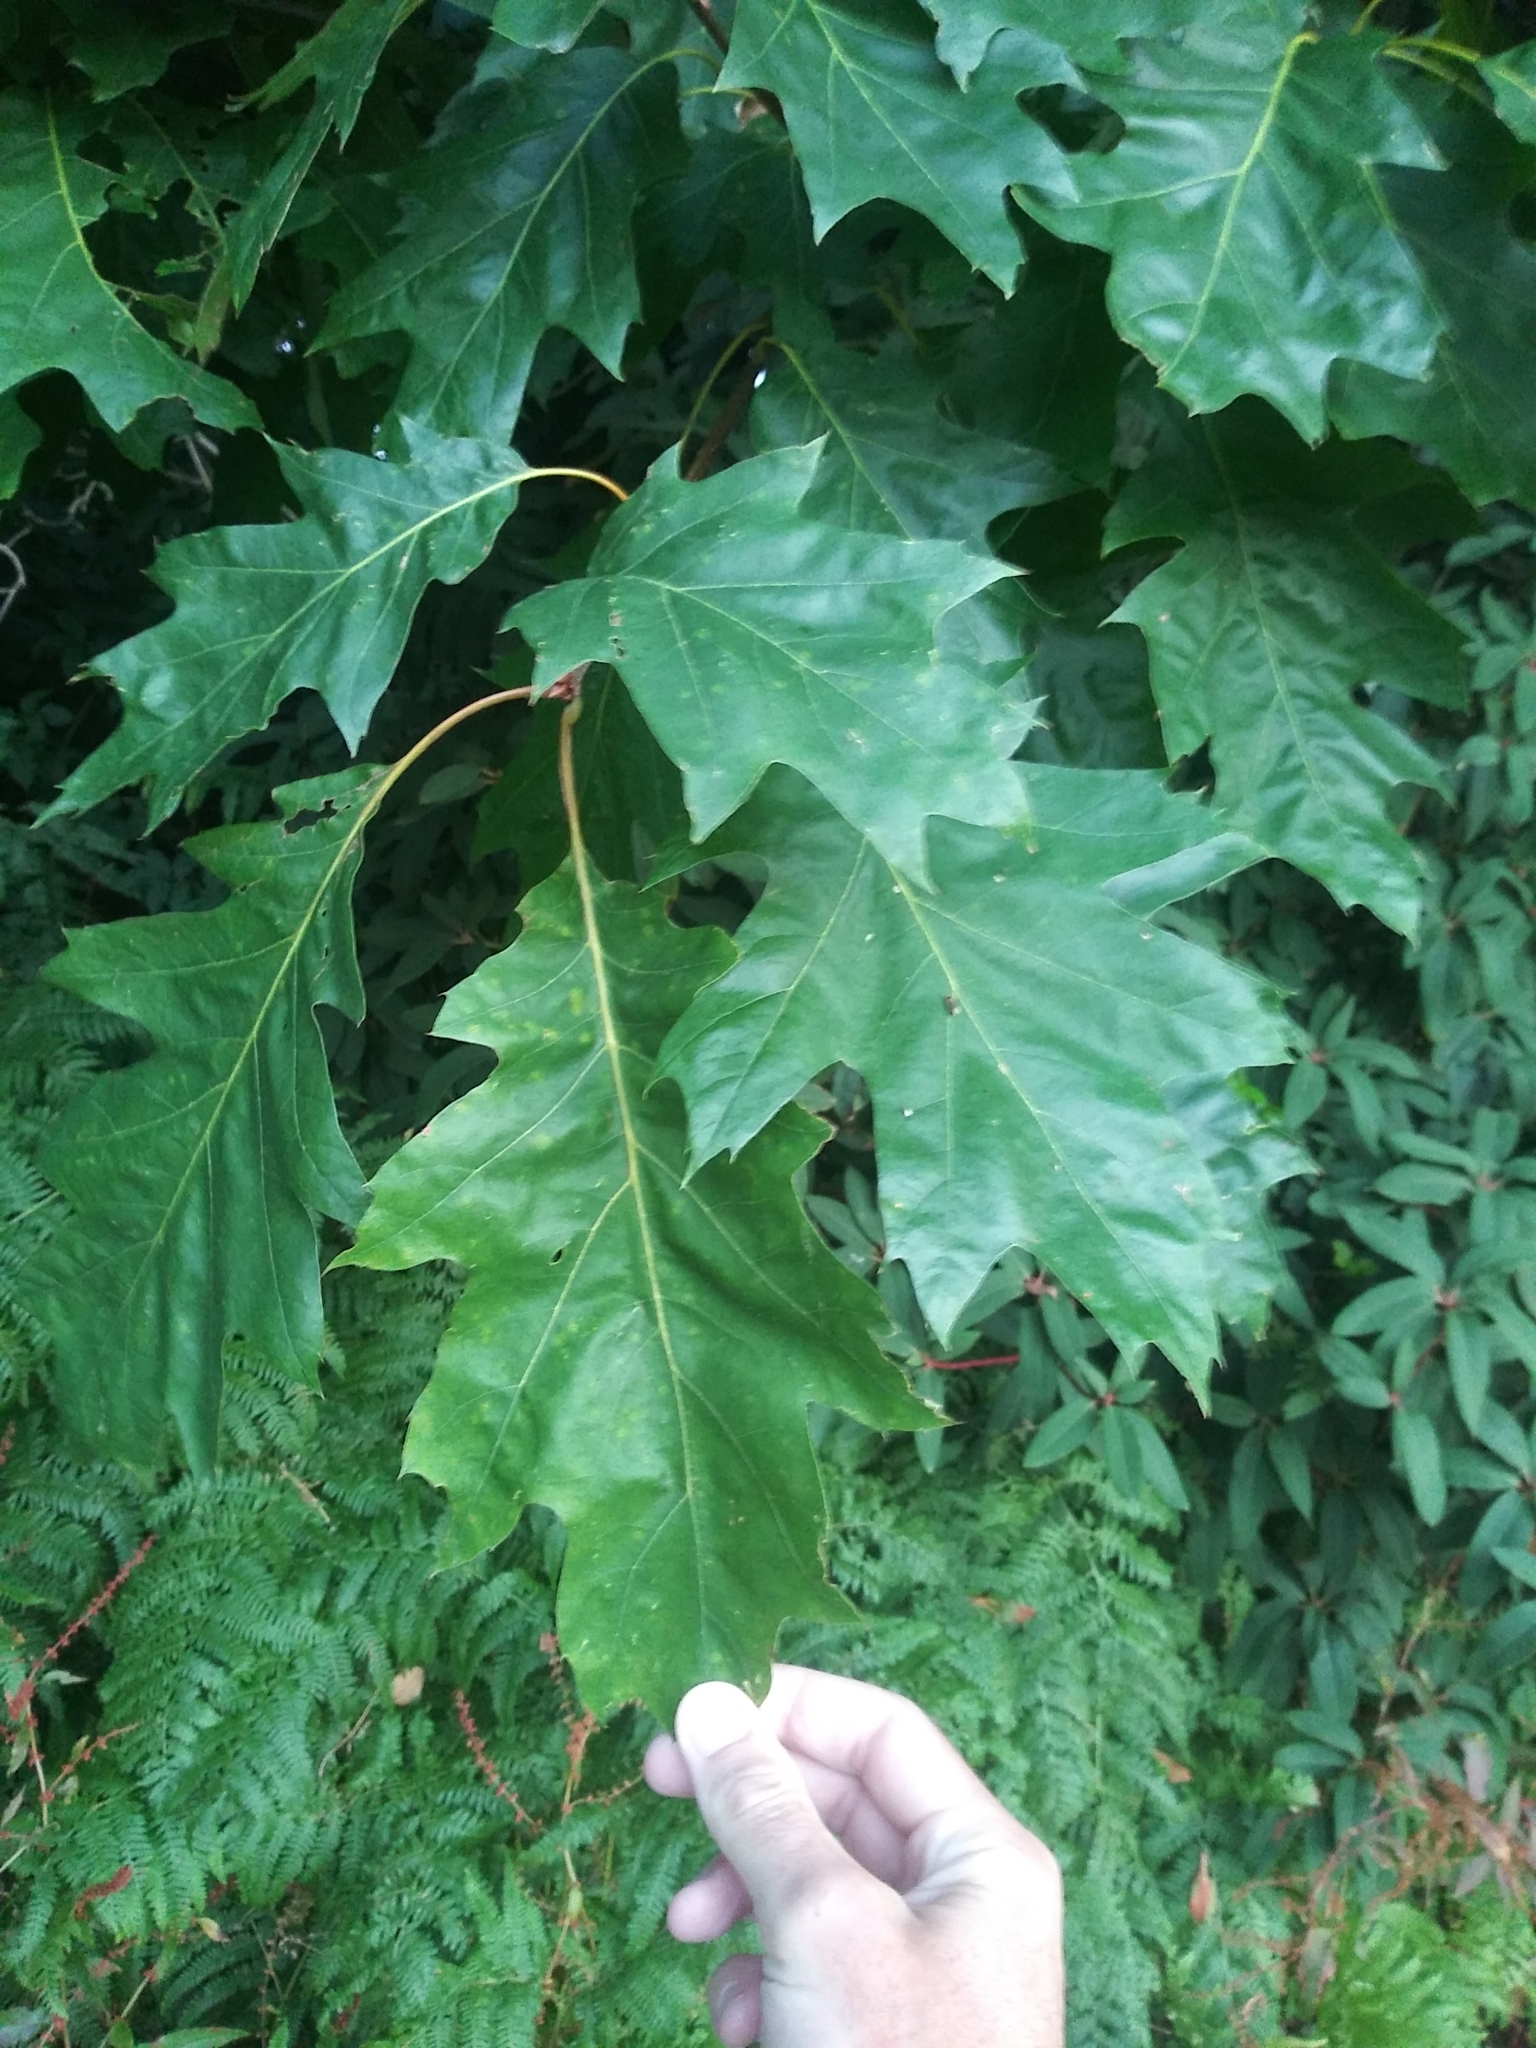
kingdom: Plantae
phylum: Tracheophyta
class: Magnoliopsida
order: Fagales
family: Fagaceae
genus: Quercus
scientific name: Quercus rubra
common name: Red oak
